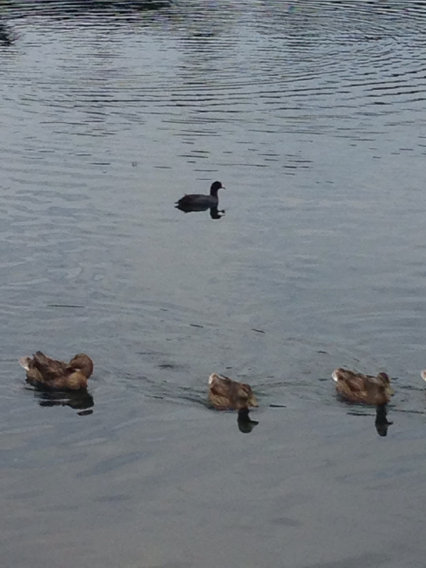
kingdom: Animalia
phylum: Chordata
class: Aves
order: Gruiformes
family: Rallidae
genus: Fulica
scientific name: Fulica americana
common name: American coot
